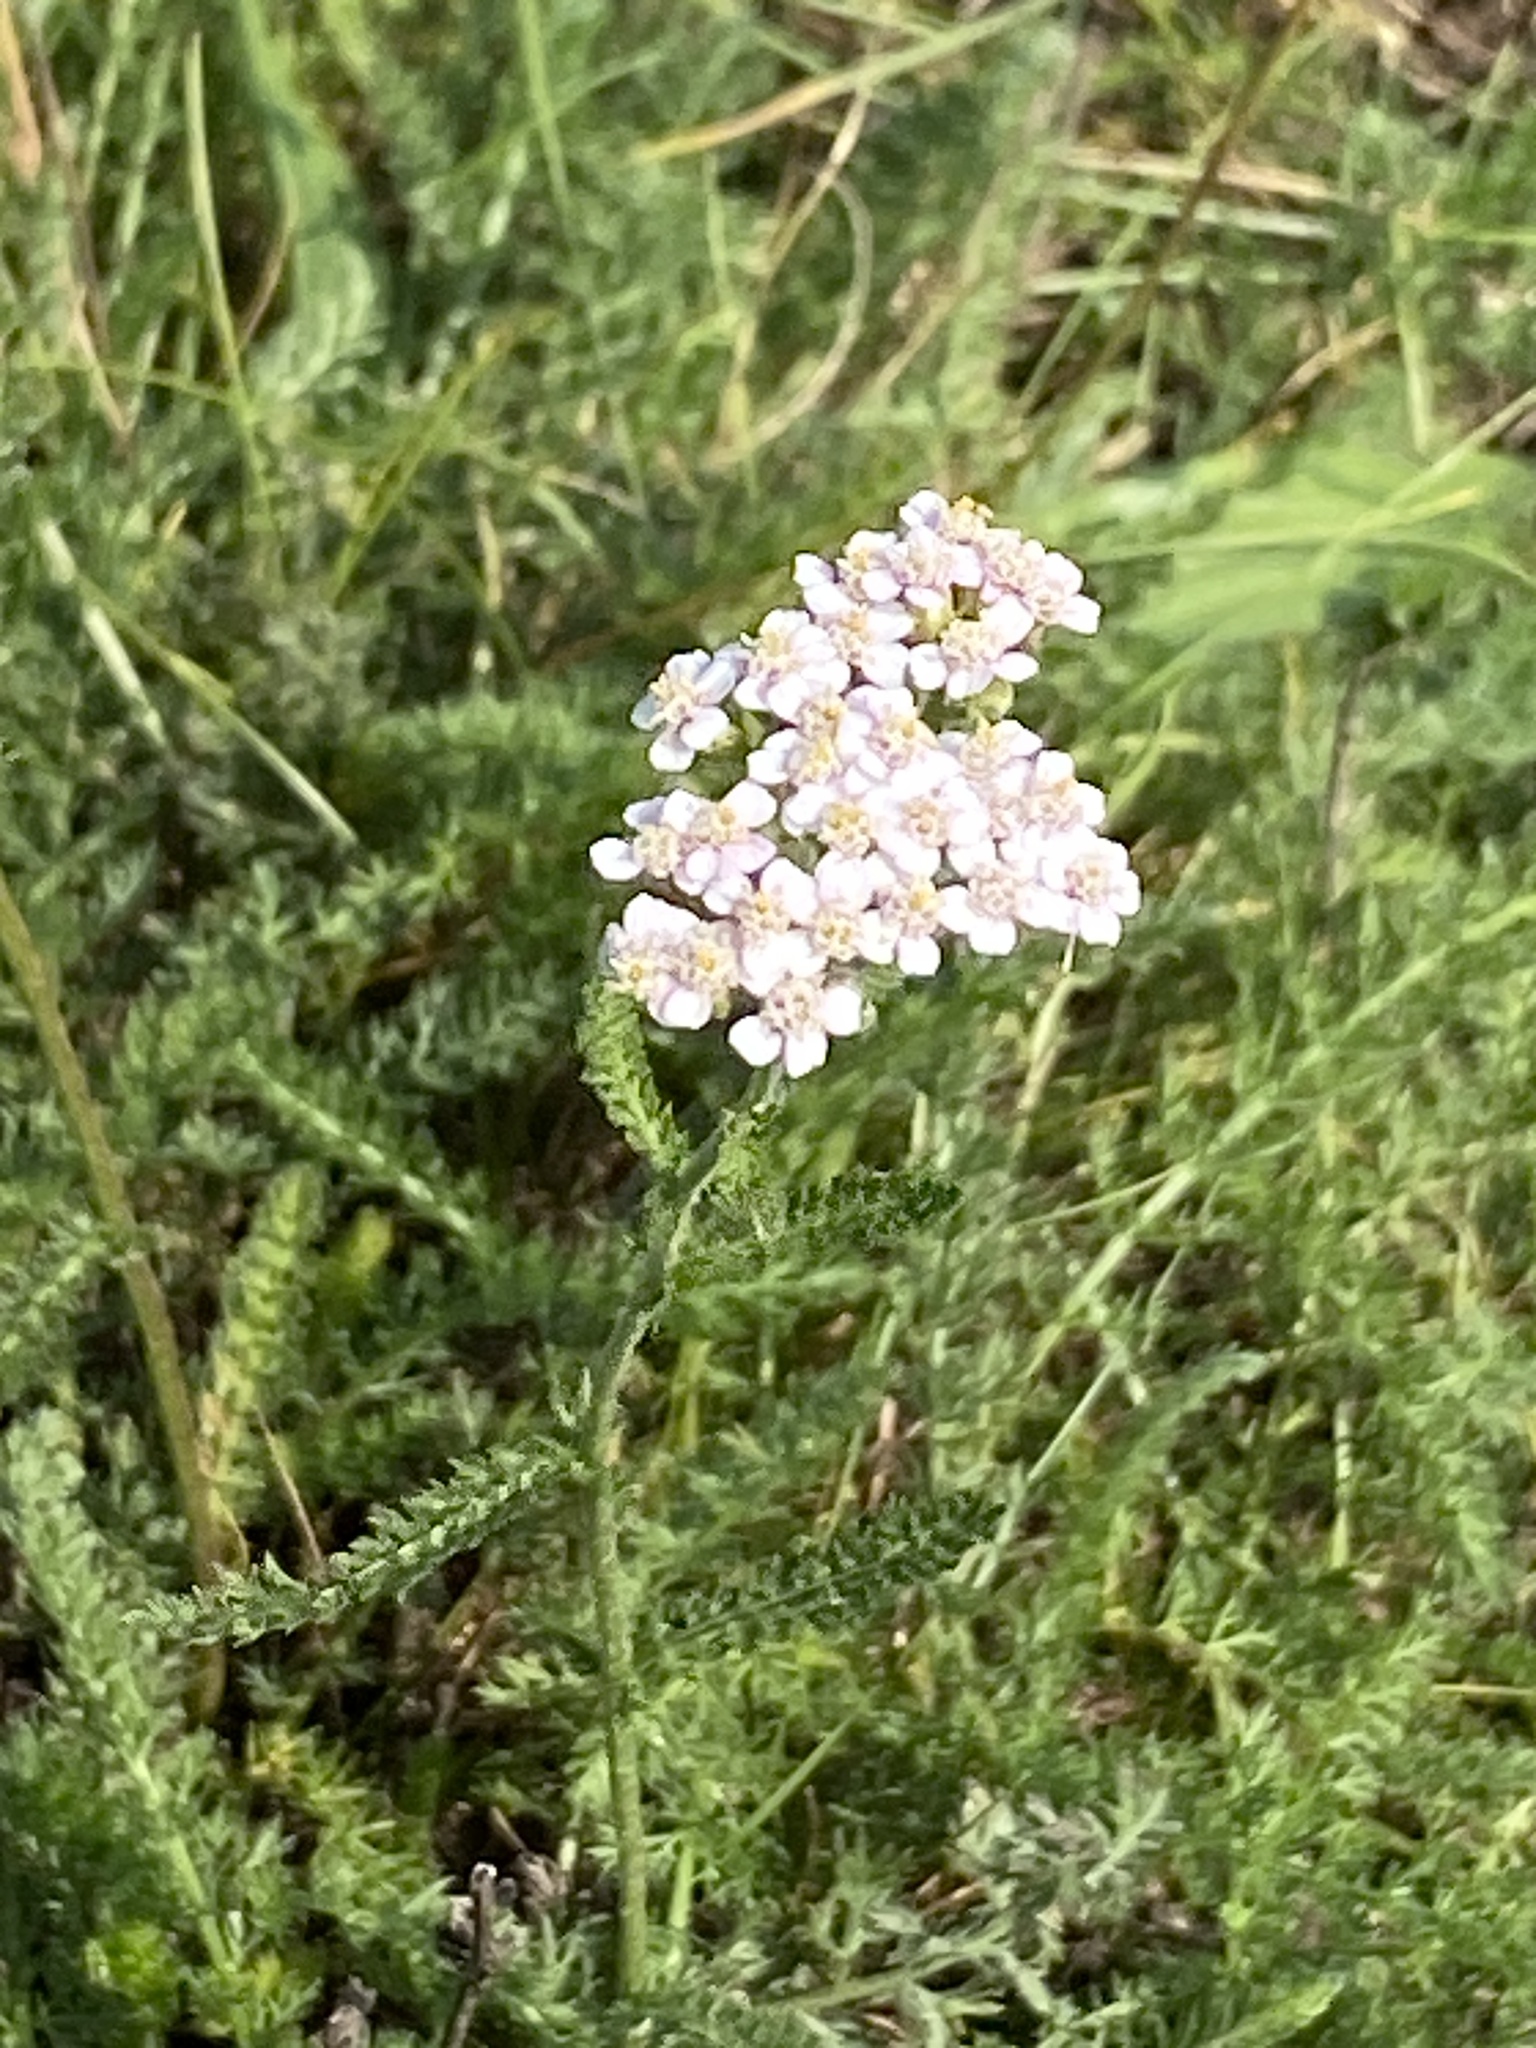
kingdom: Plantae
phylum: Tracheophyta
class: Magnoliopsida
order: Asterales
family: Asteraceae
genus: Achillea
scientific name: Achillea millefolium
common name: Yarrow
